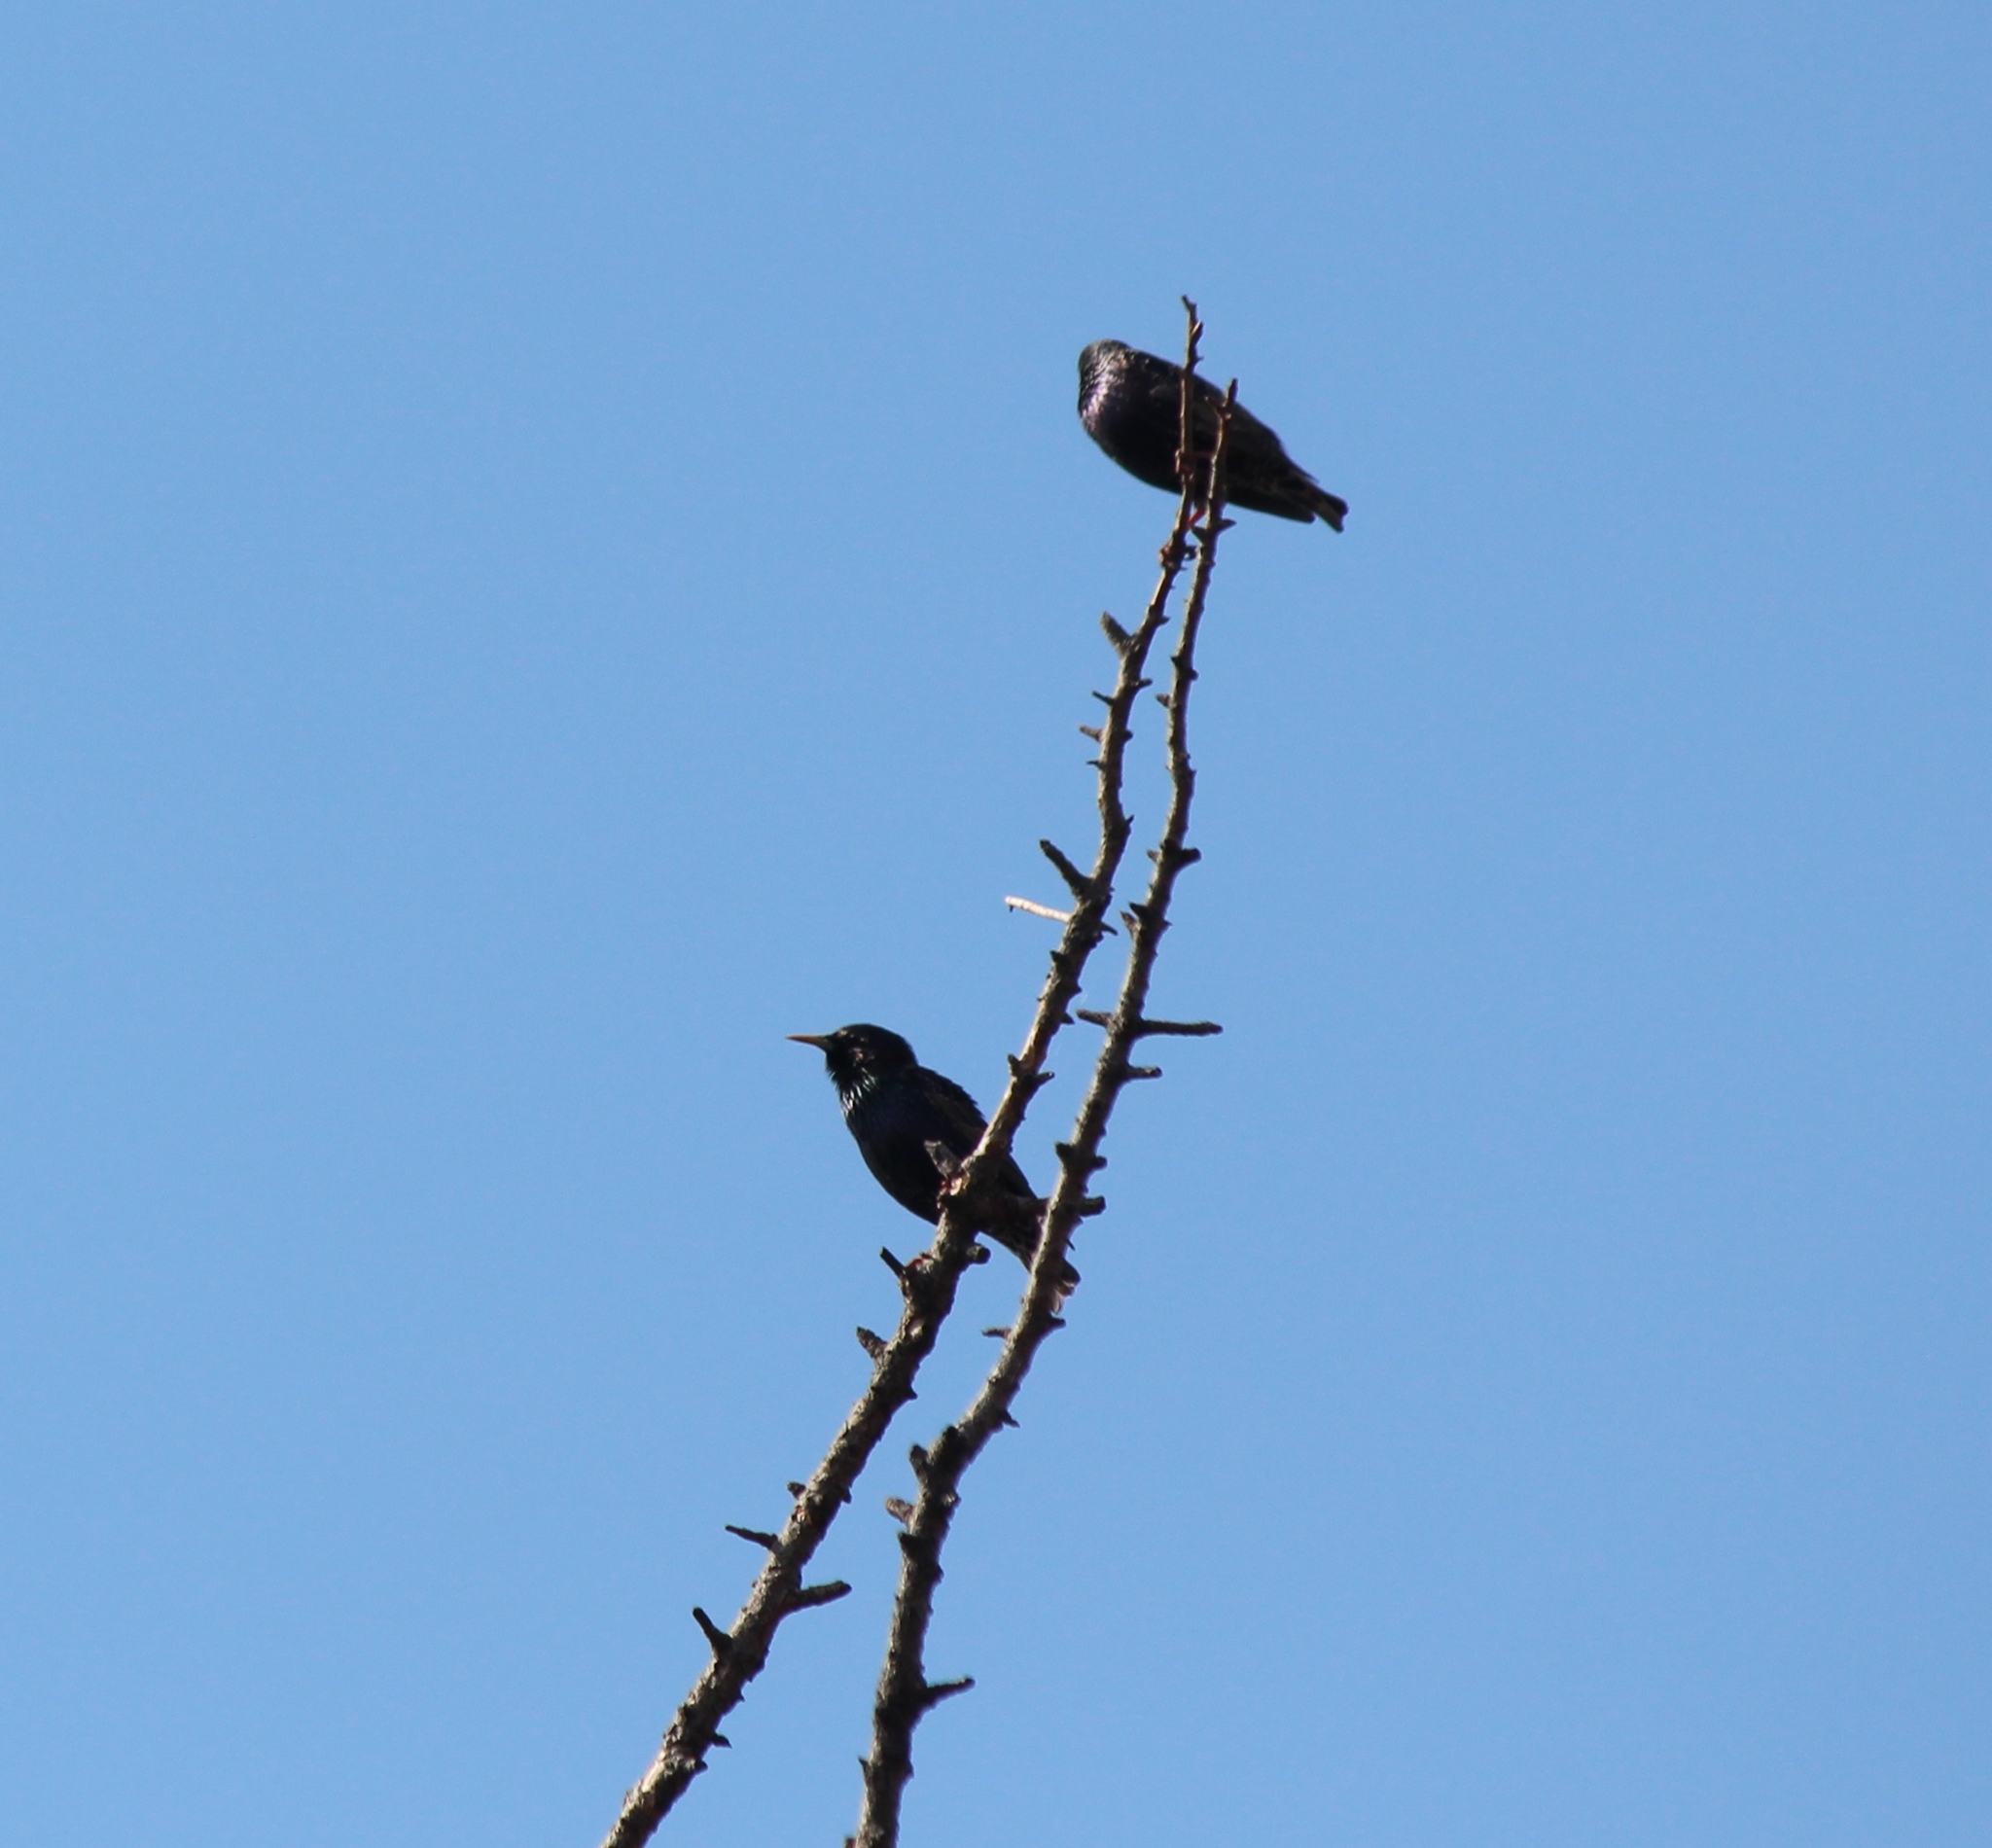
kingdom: Animalia
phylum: Chordata
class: Aves
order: Passeriformes
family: Sturnidae
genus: Sturnus
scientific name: Sturnus vulgaris
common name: Common starling
